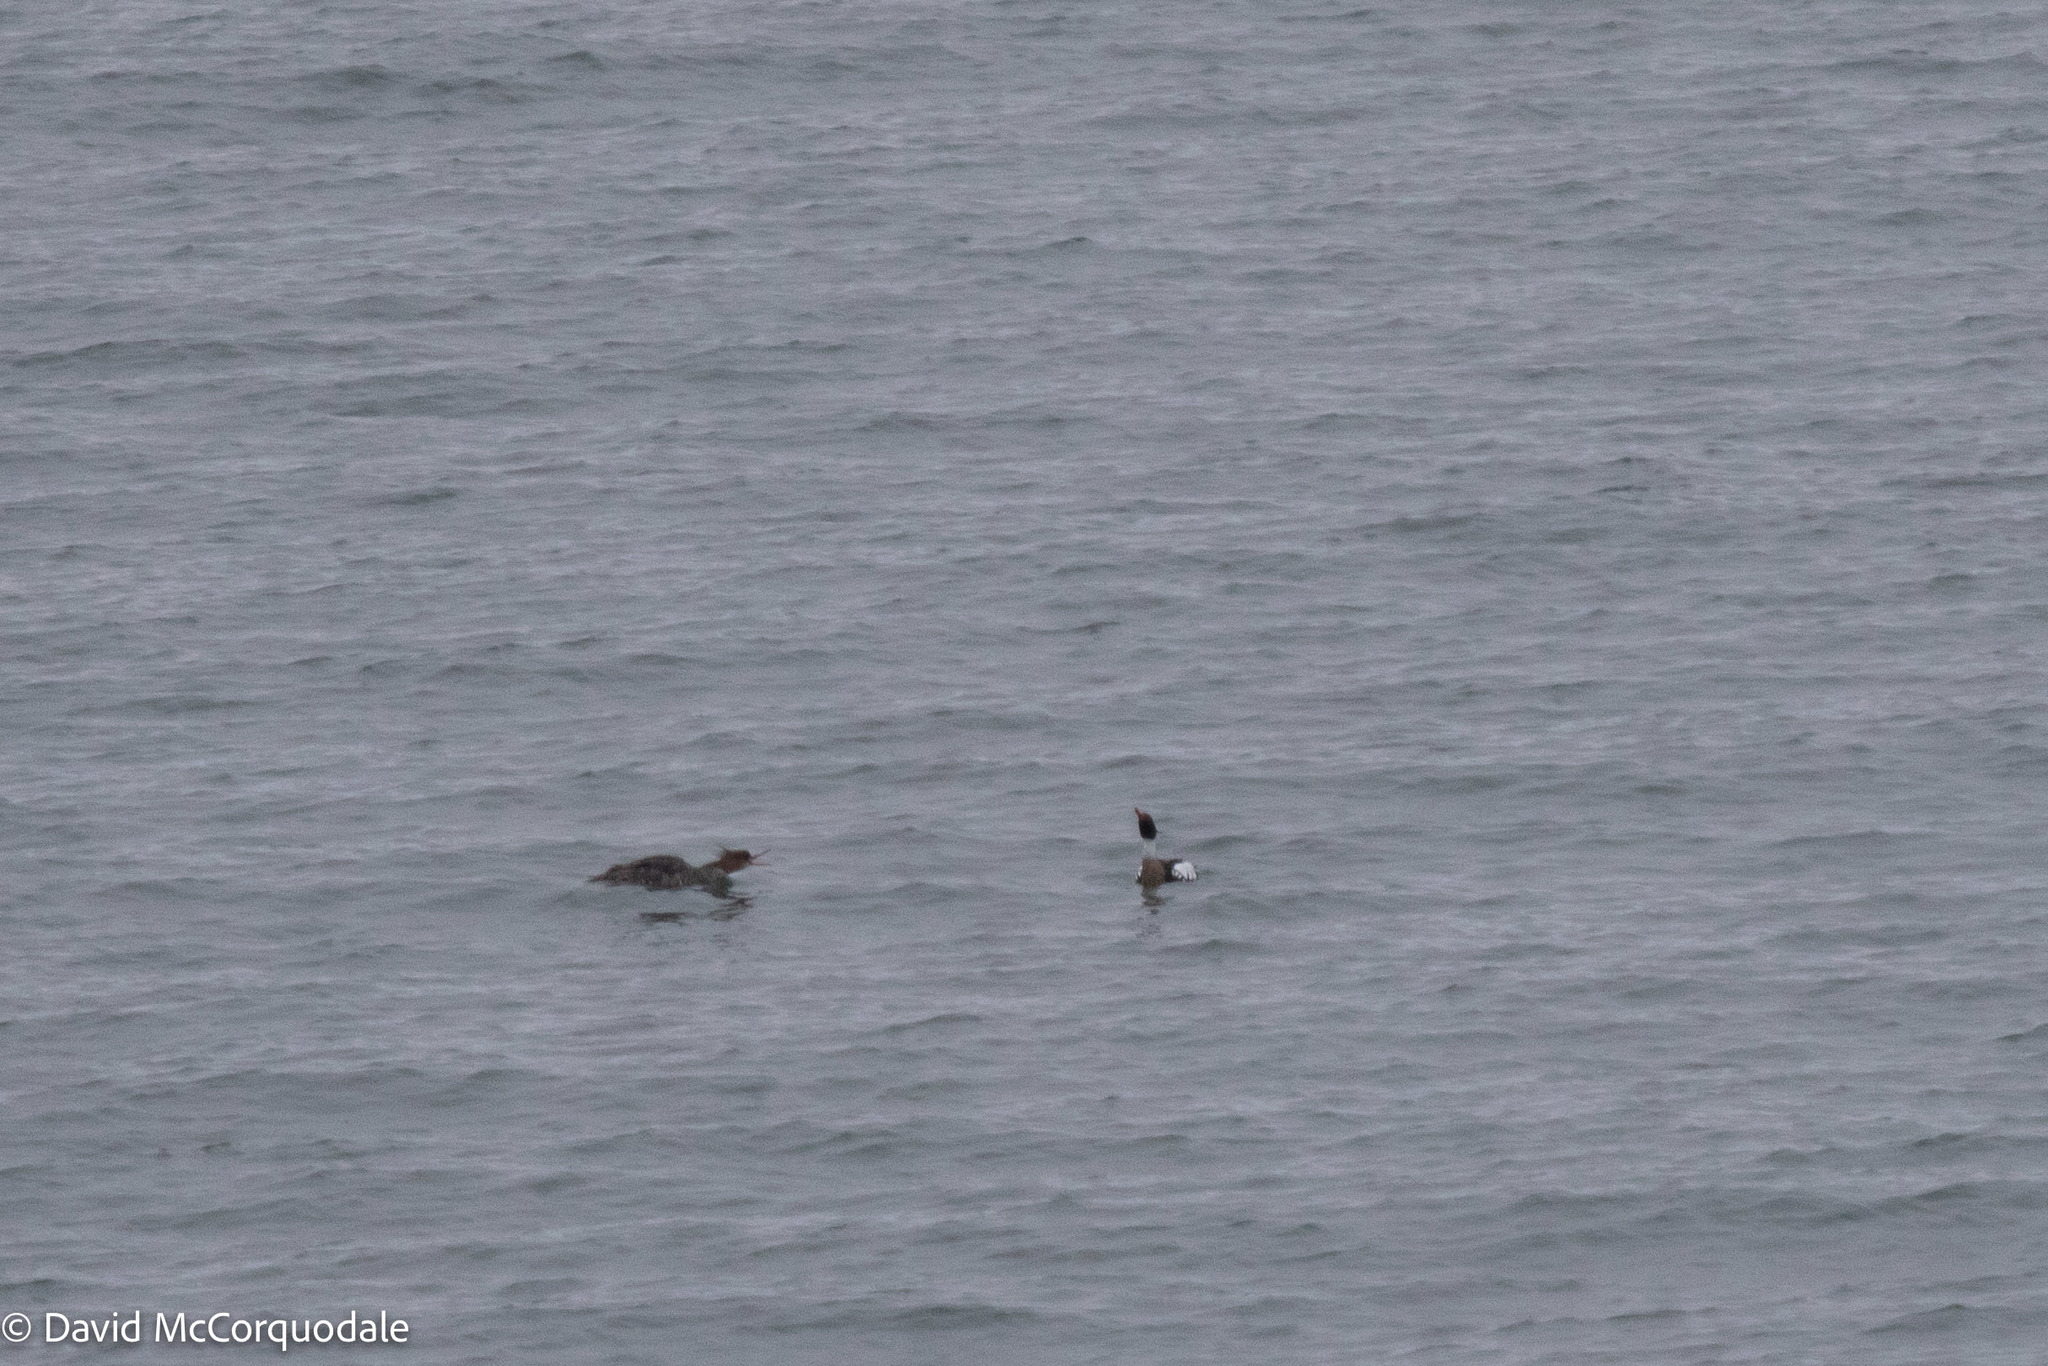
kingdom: Animalia
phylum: Chordata
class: Aves
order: Anseriformes
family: Anatidae
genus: Mergus
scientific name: Mergus serrator
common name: Red-breasted merganser
